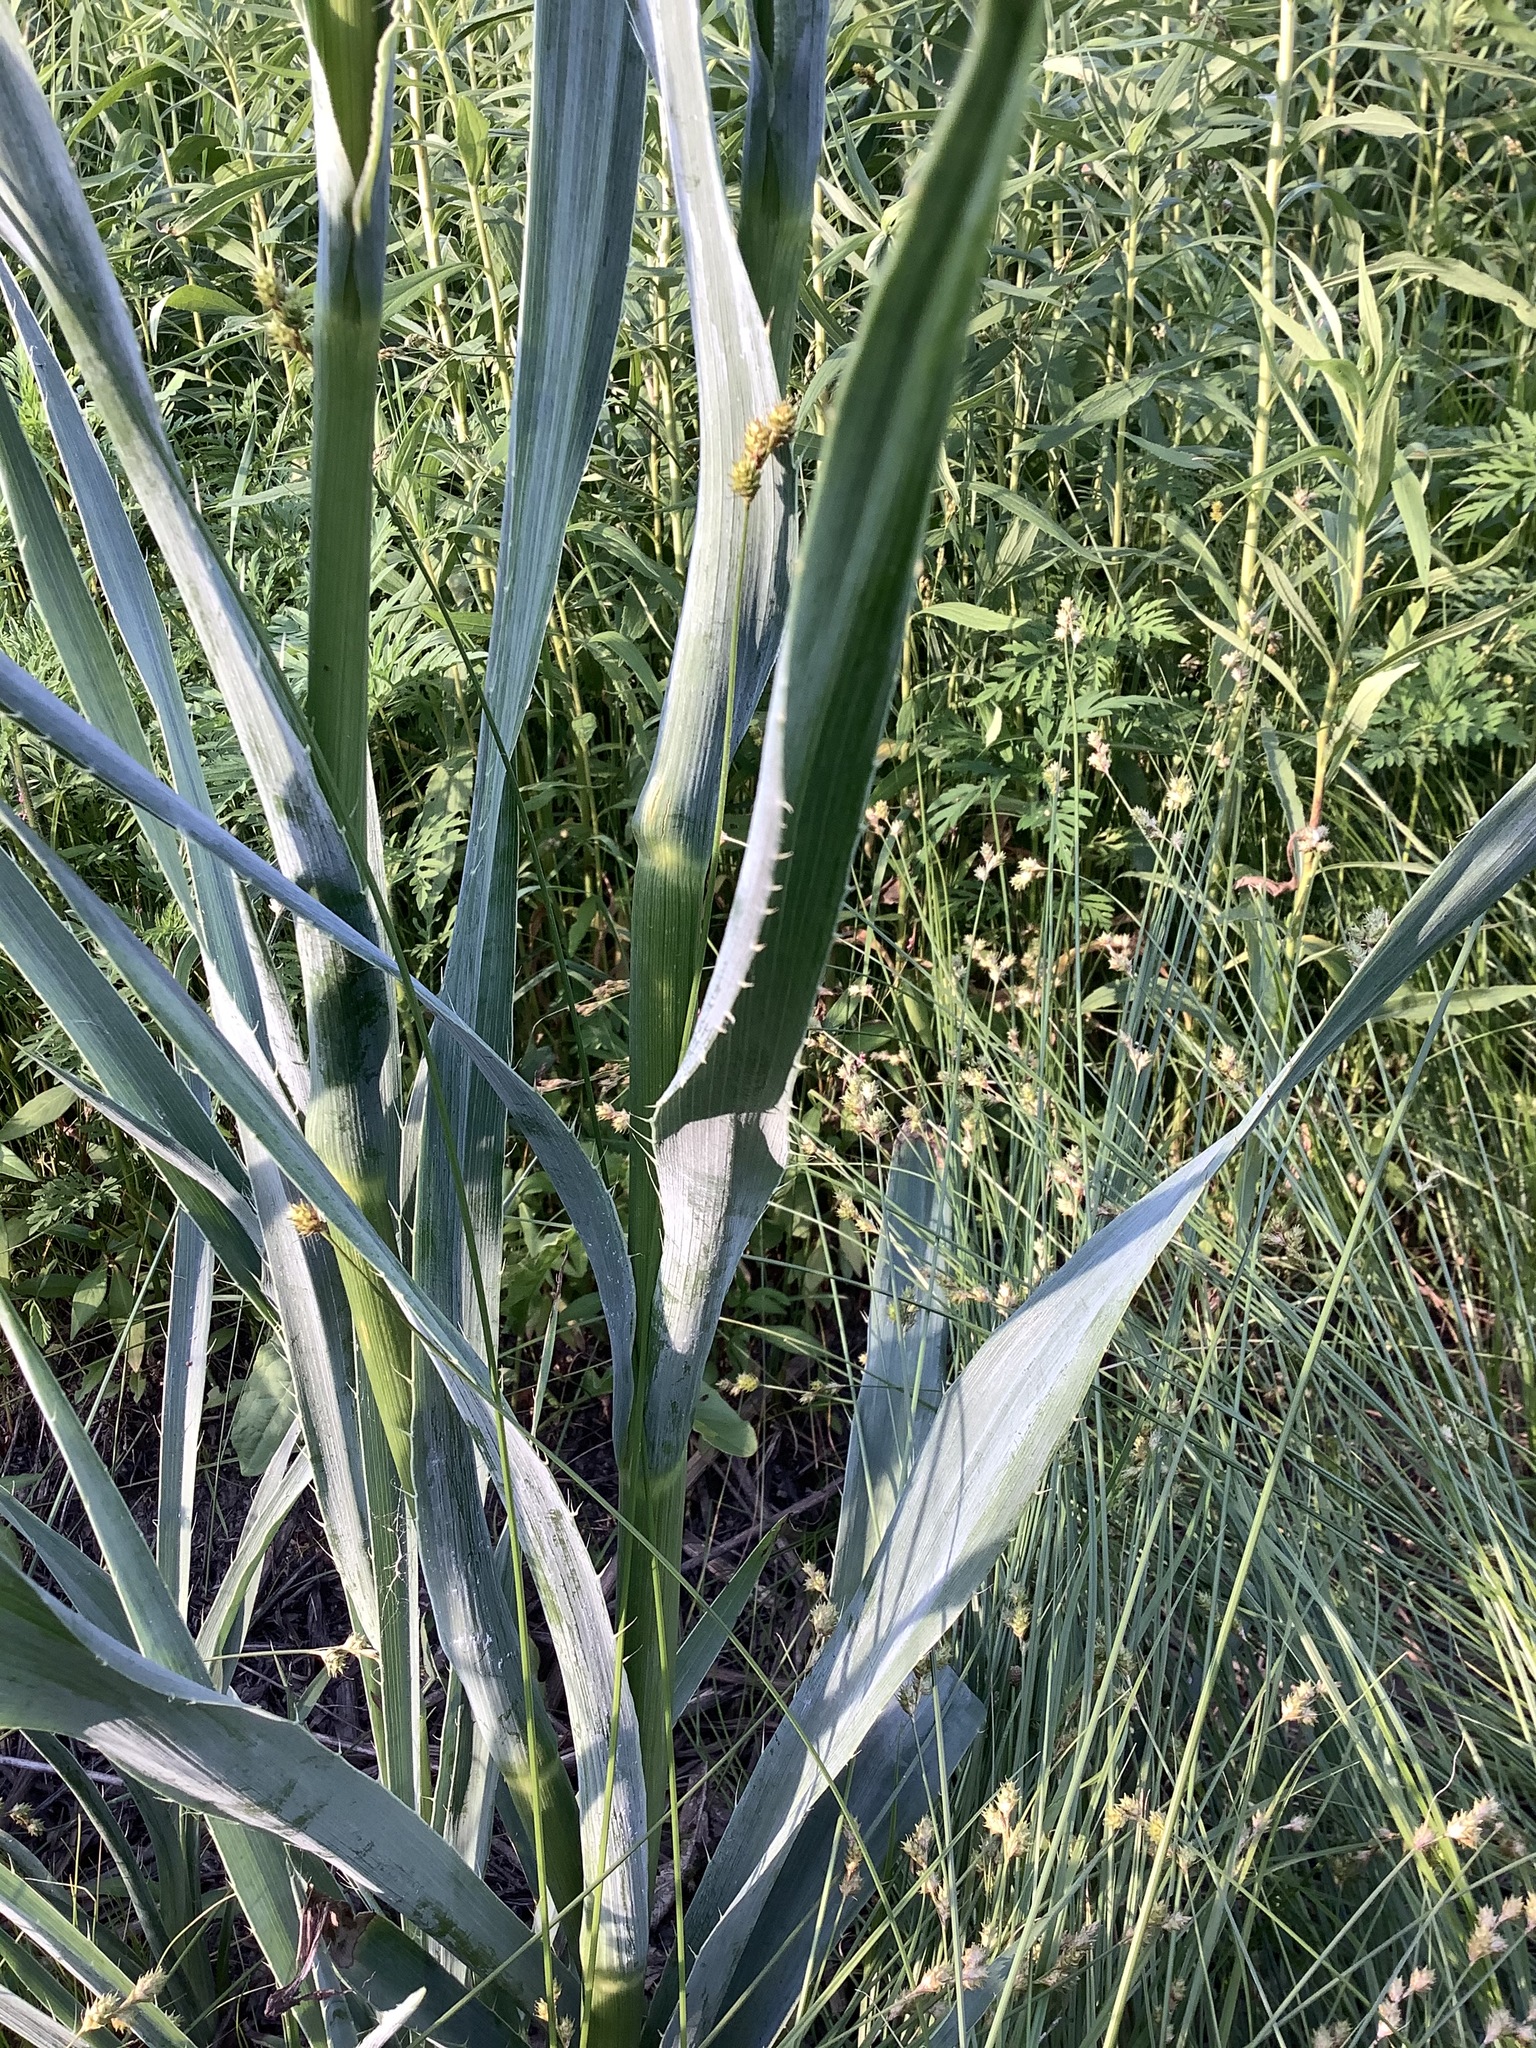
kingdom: Plantae
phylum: Tracheophyta
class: Magnoliopsida
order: Apiales
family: Apiaceae
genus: Eryngium
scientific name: Eryngium yuccifolium
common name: Button eryngo
